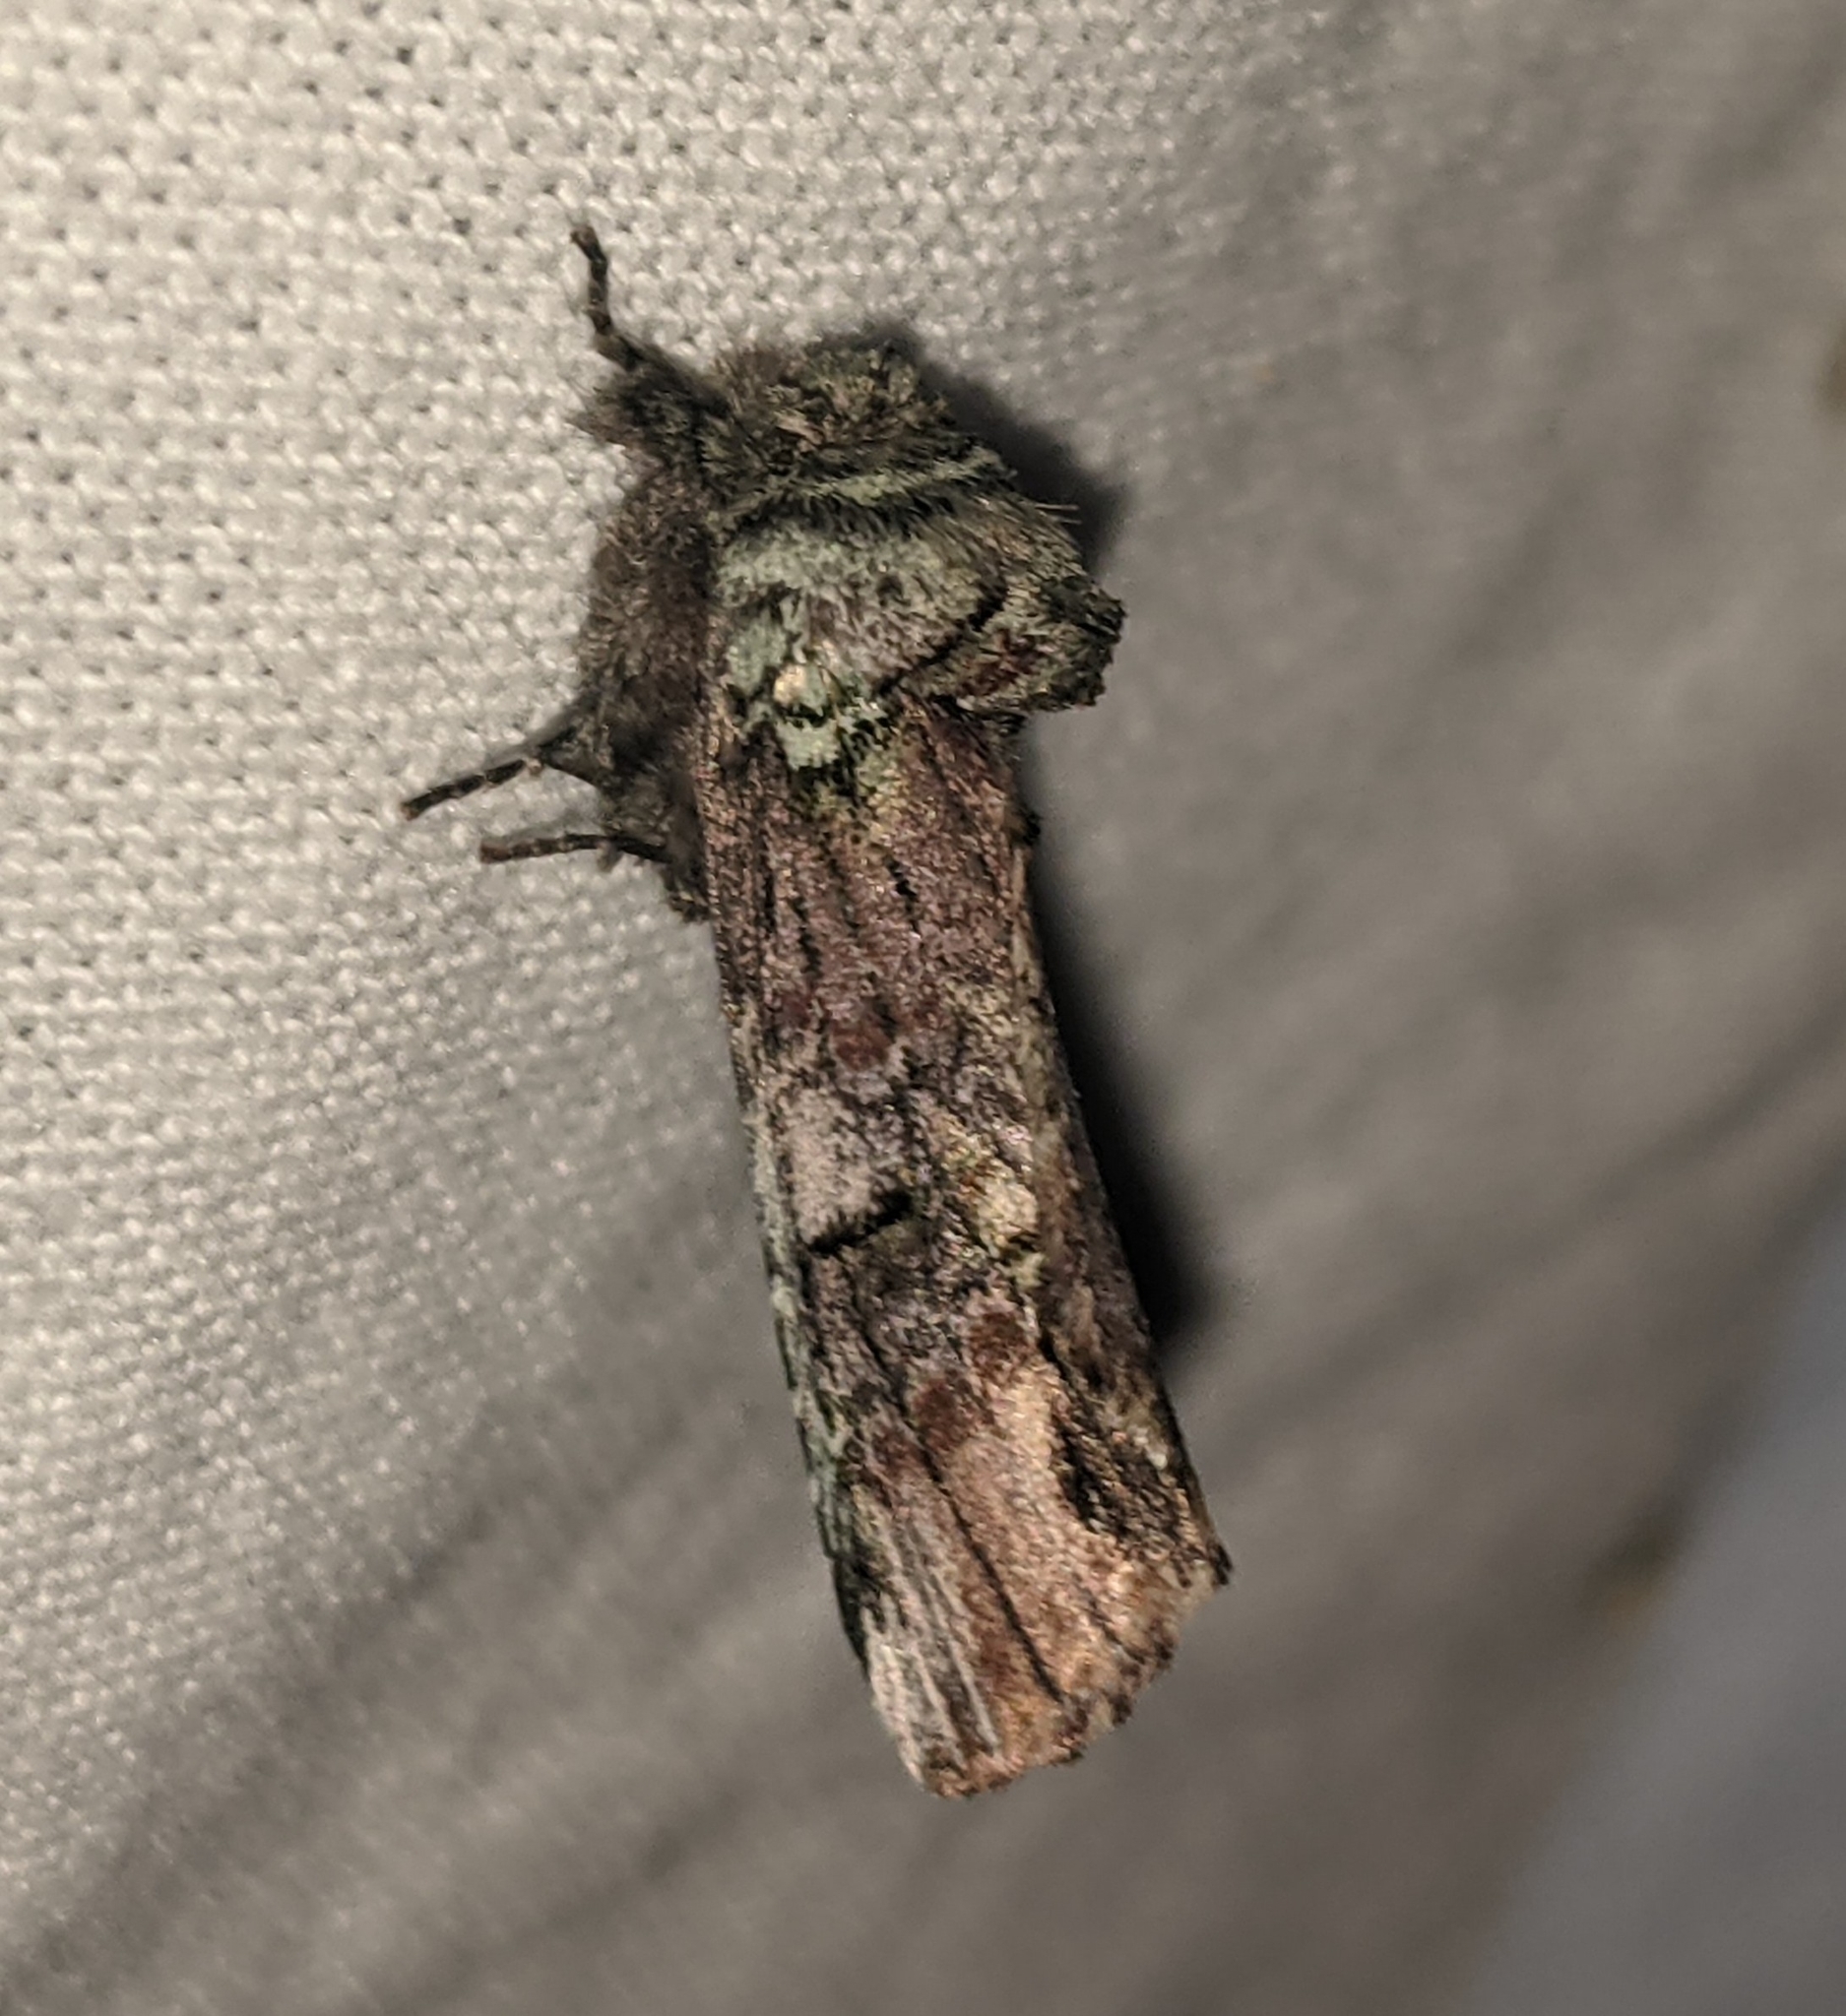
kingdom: Animalia
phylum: Arthropoda
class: Insecta
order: Lepidoptera
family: Notodontidae
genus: Schizura
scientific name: Schizura
